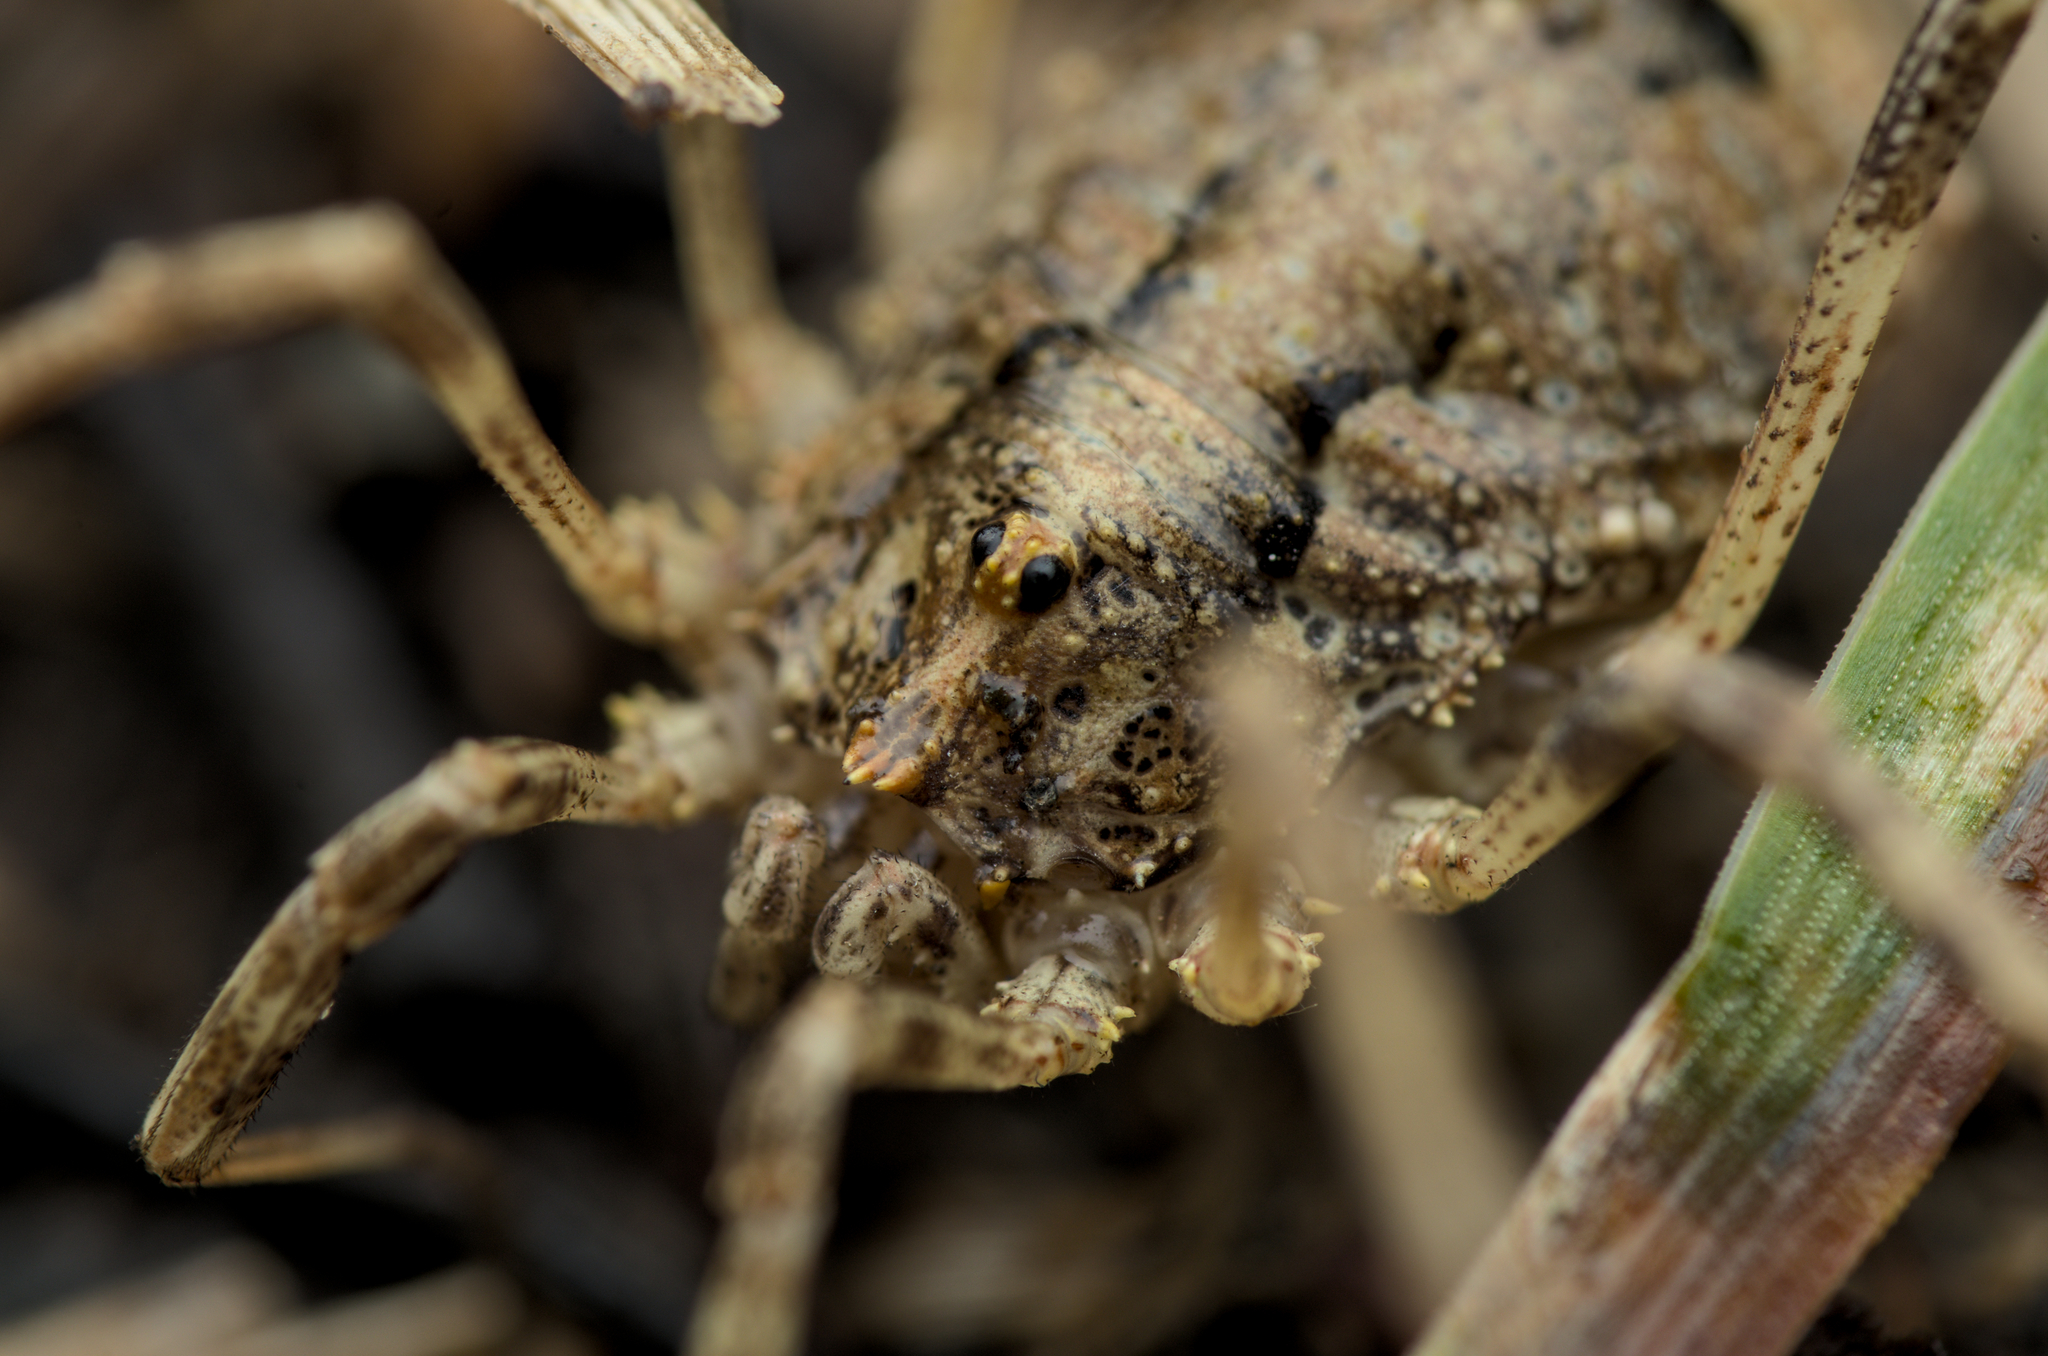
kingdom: Animalia
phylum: Arthropoda
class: Arachnida
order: Opiliones
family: Phalangiidae
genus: Odiellus
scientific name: Odiellus spinosus
